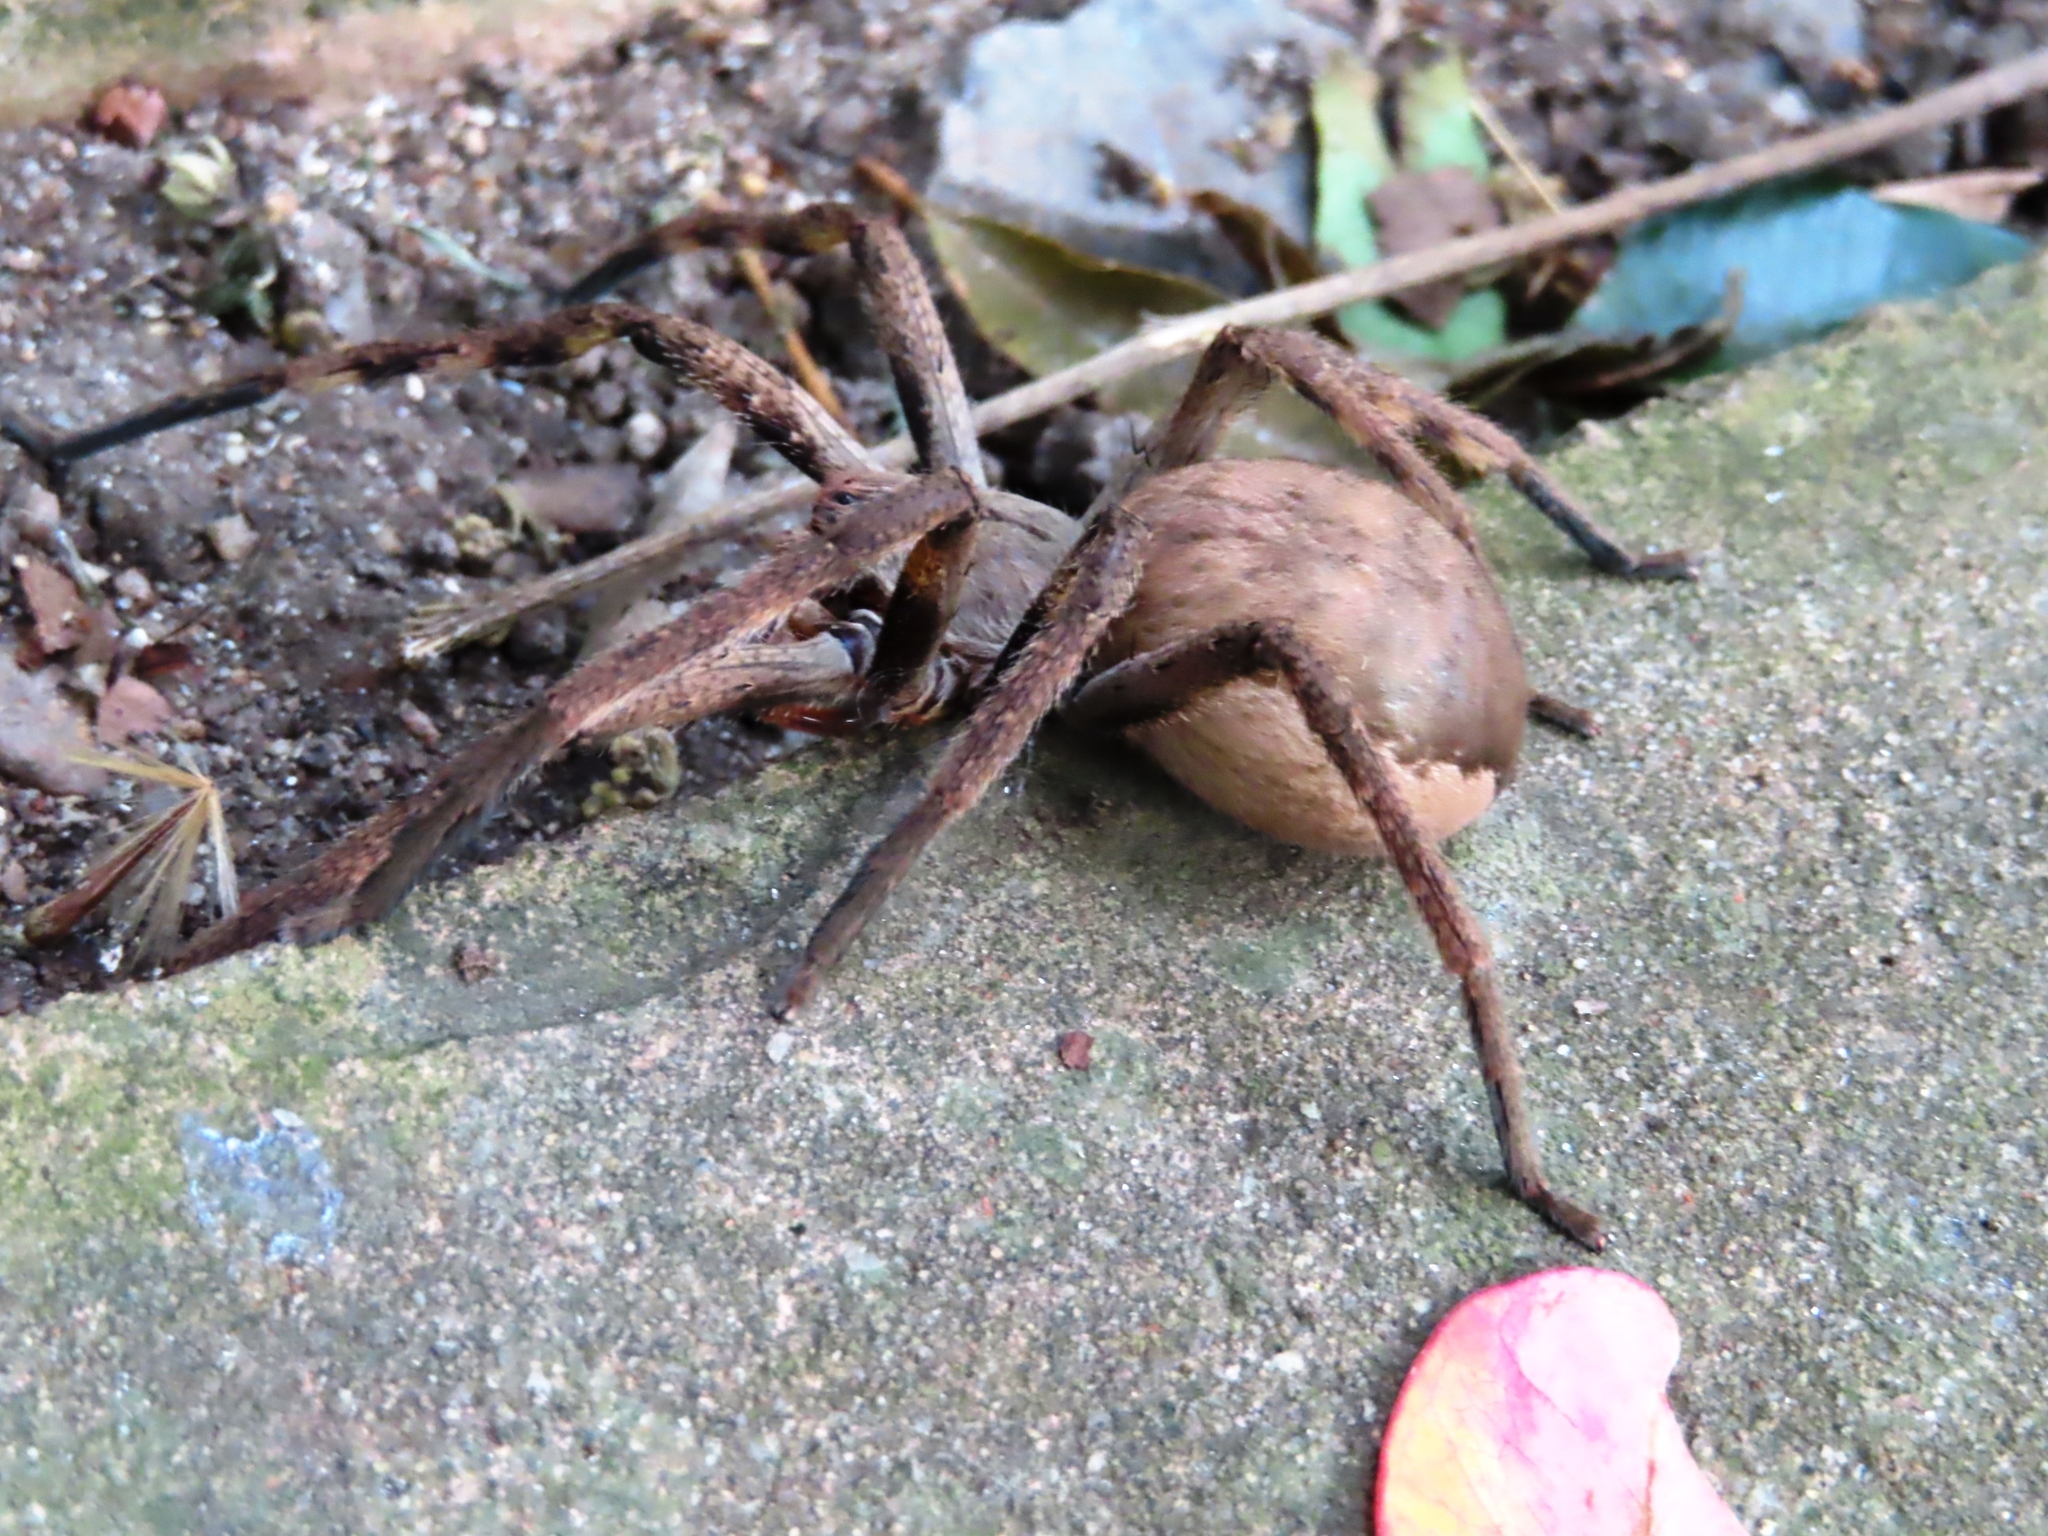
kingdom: Animalia
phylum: Arthropoda
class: Arachnida
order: Araneae
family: Sparassidae
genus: Palystes
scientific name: Palystes superciliosus
